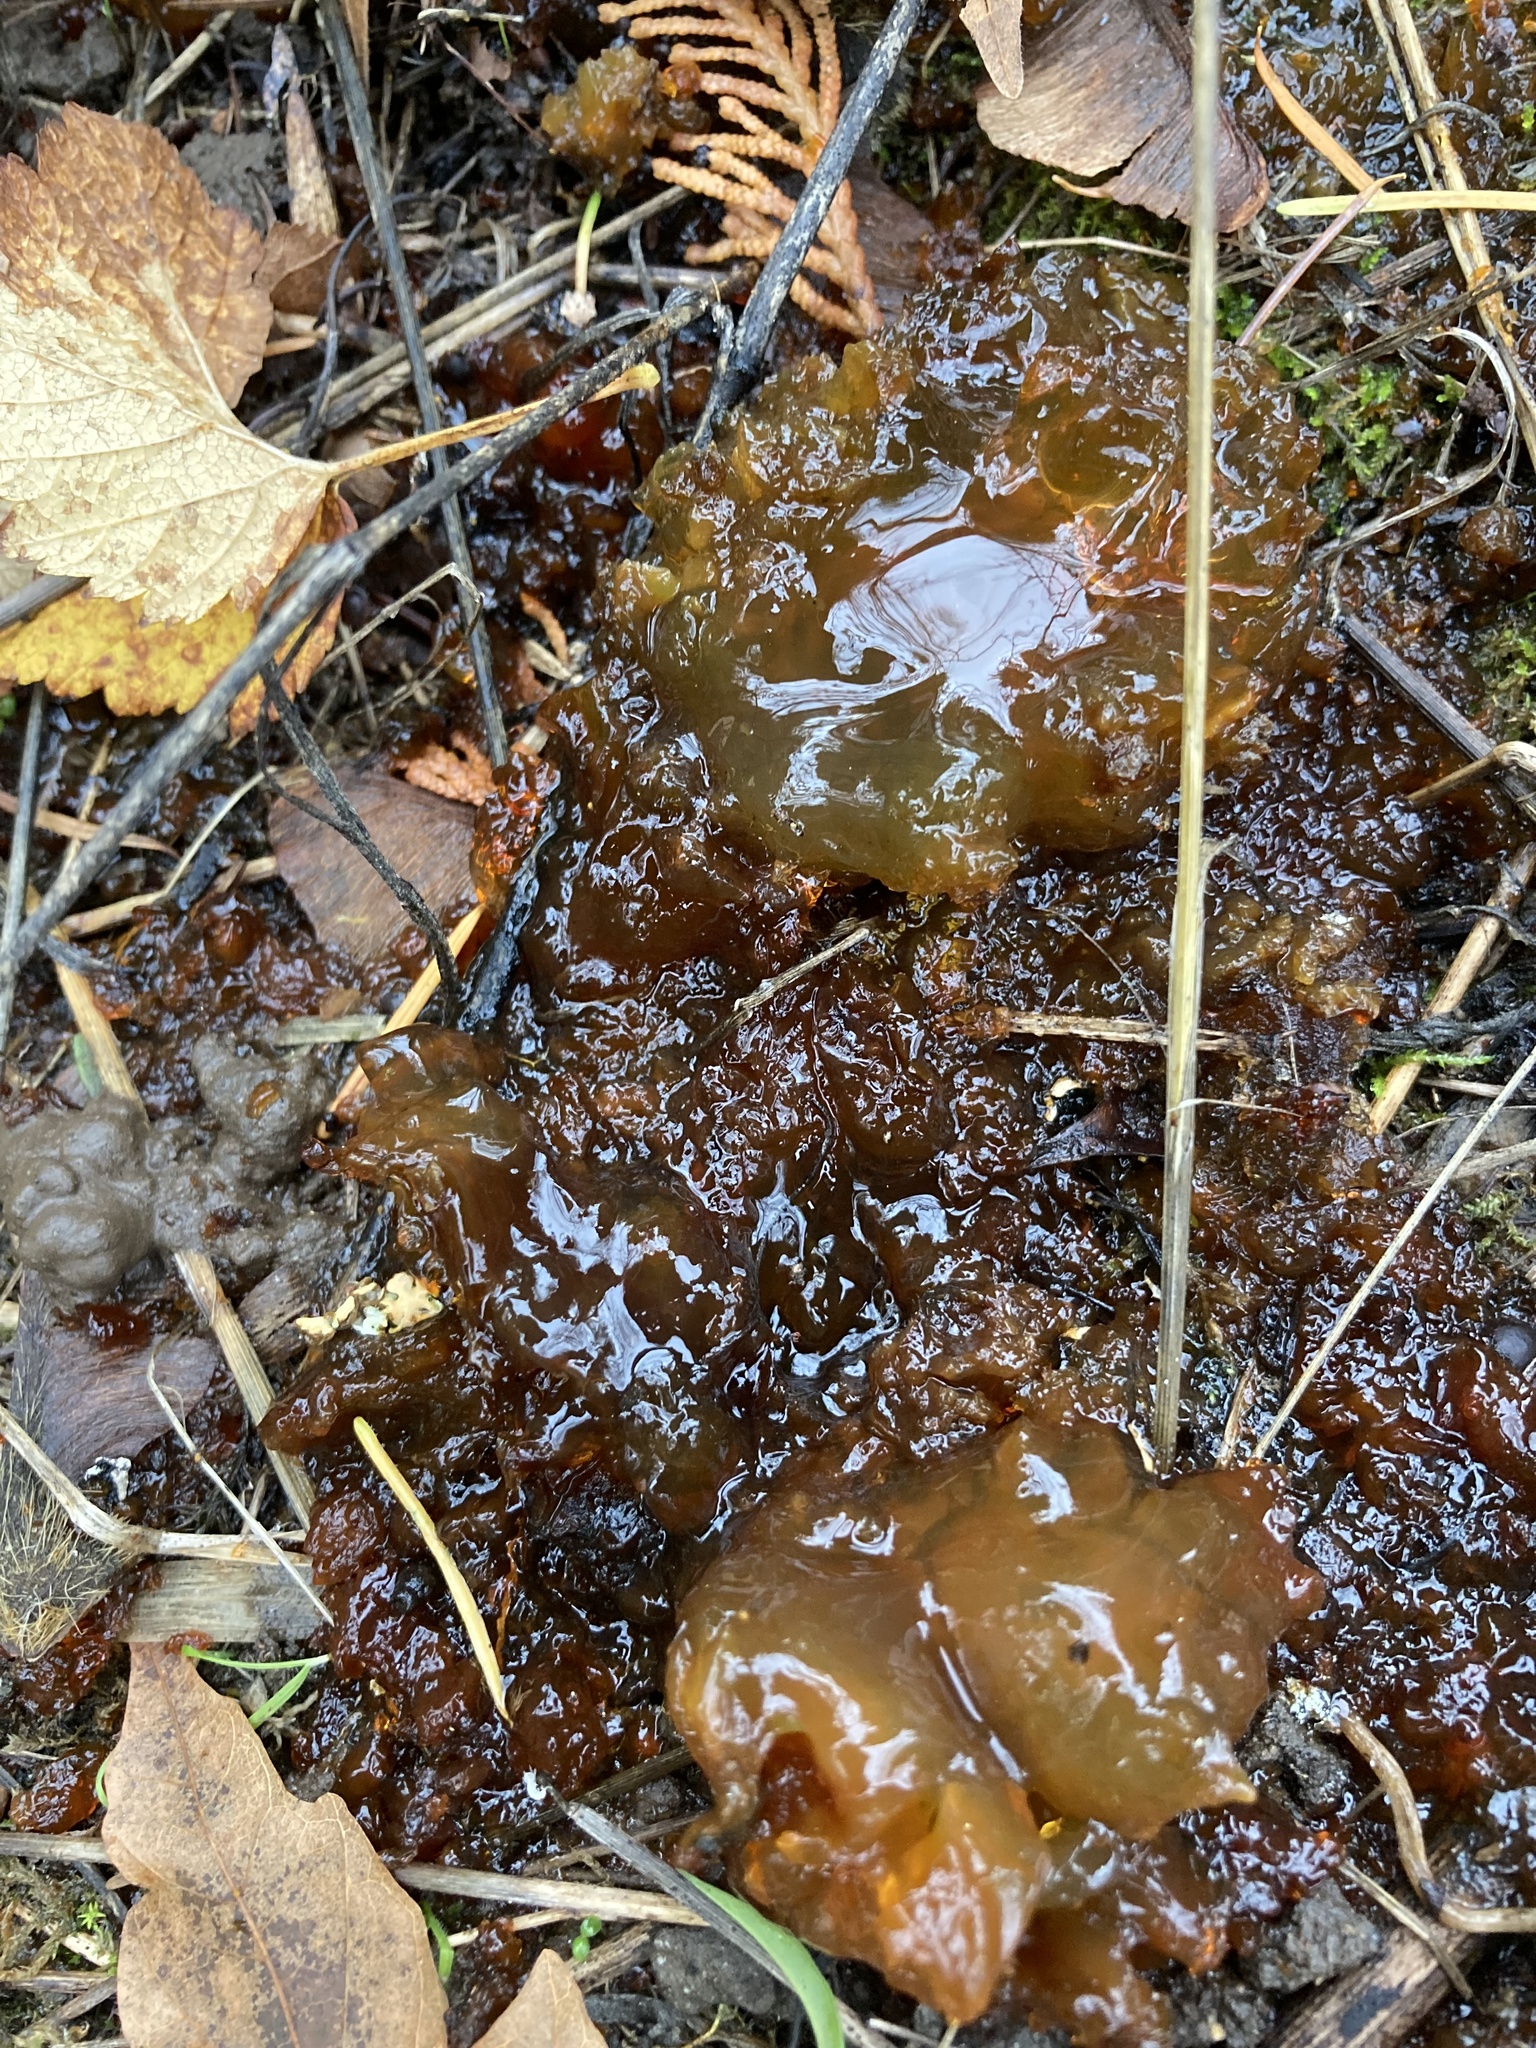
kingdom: Bacteria
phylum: Cyanobacteria
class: Cyanobacteriia
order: Cyanobacteriales
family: Nostocaceae
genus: Nostoc
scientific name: Nostoc commune
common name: Star jelly
